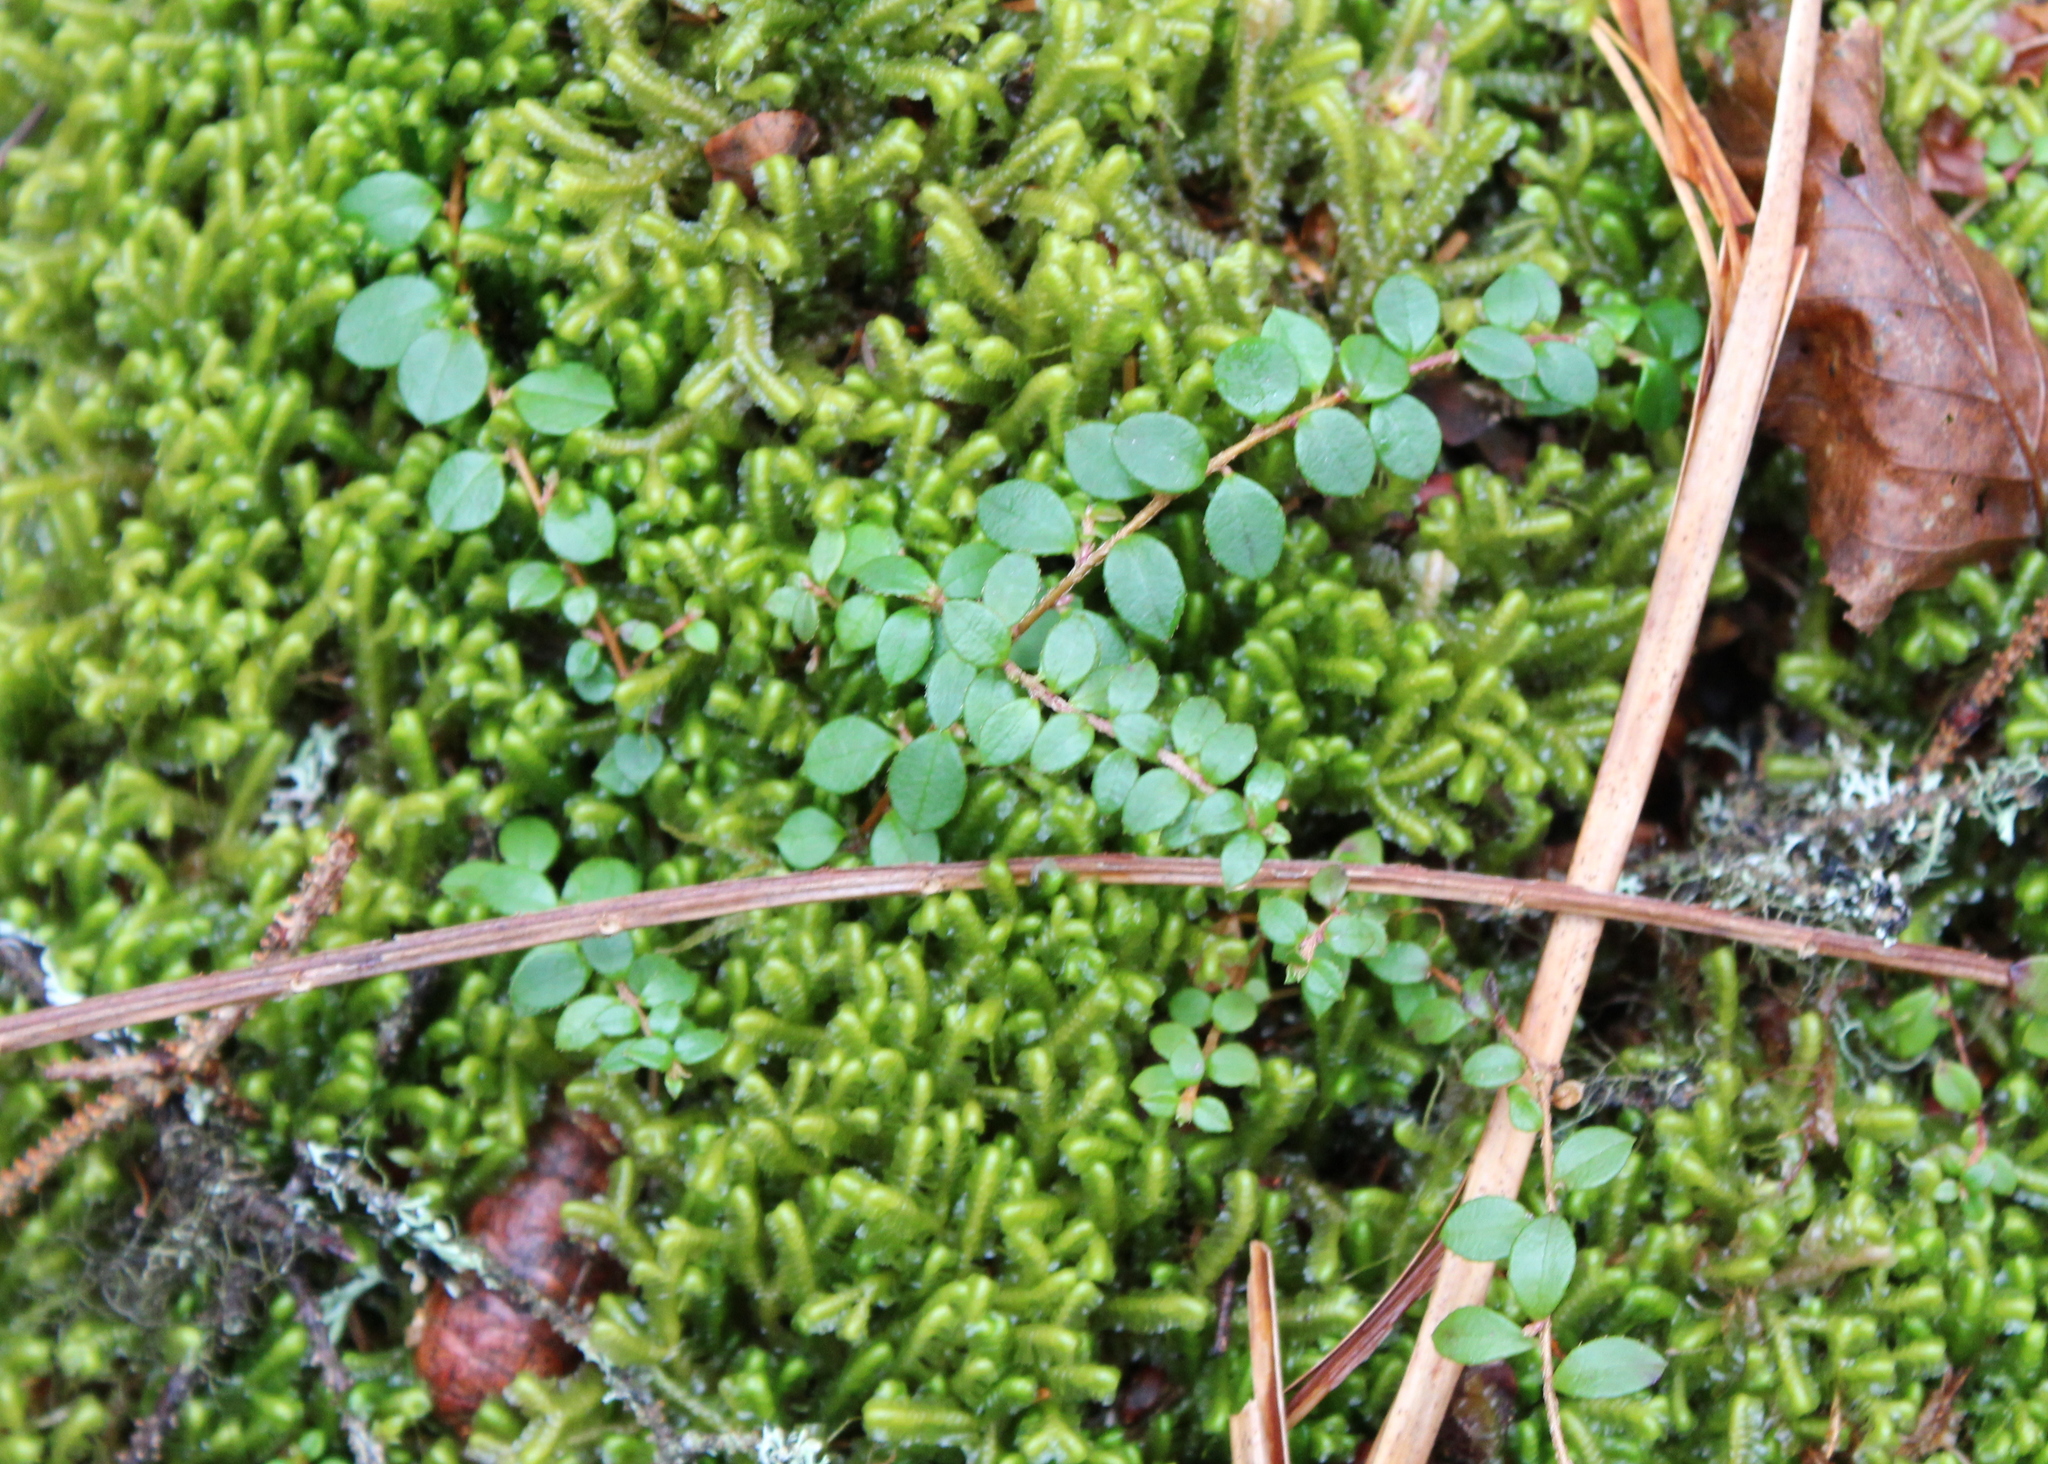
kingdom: Plantae
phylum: Tracheophyta
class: Magnoliopsida
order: Ericales
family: Ericaceae
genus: Gaultheria
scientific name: Gaultheria hispidula
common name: Cancer wintergreen
